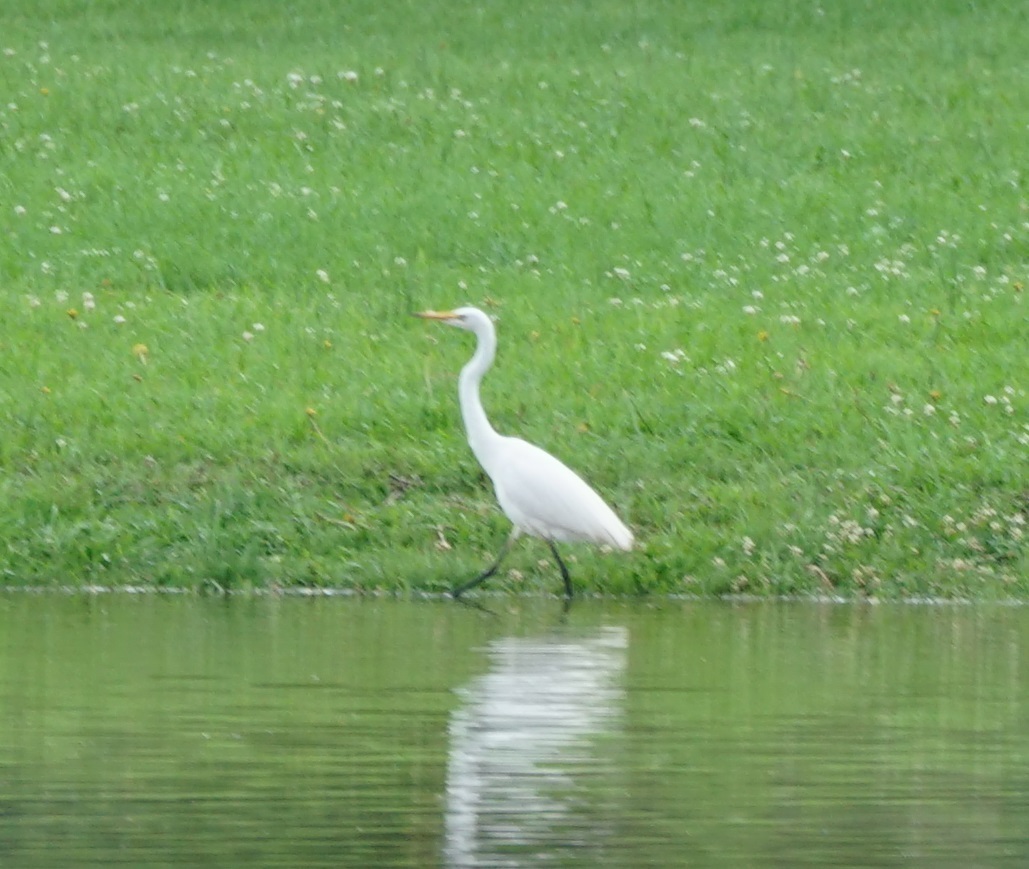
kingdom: Animalia
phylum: Chordata
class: Aves
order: Pelecaniformes
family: Ardeidae
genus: Ardea
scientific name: Ardea alba
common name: Great egret
